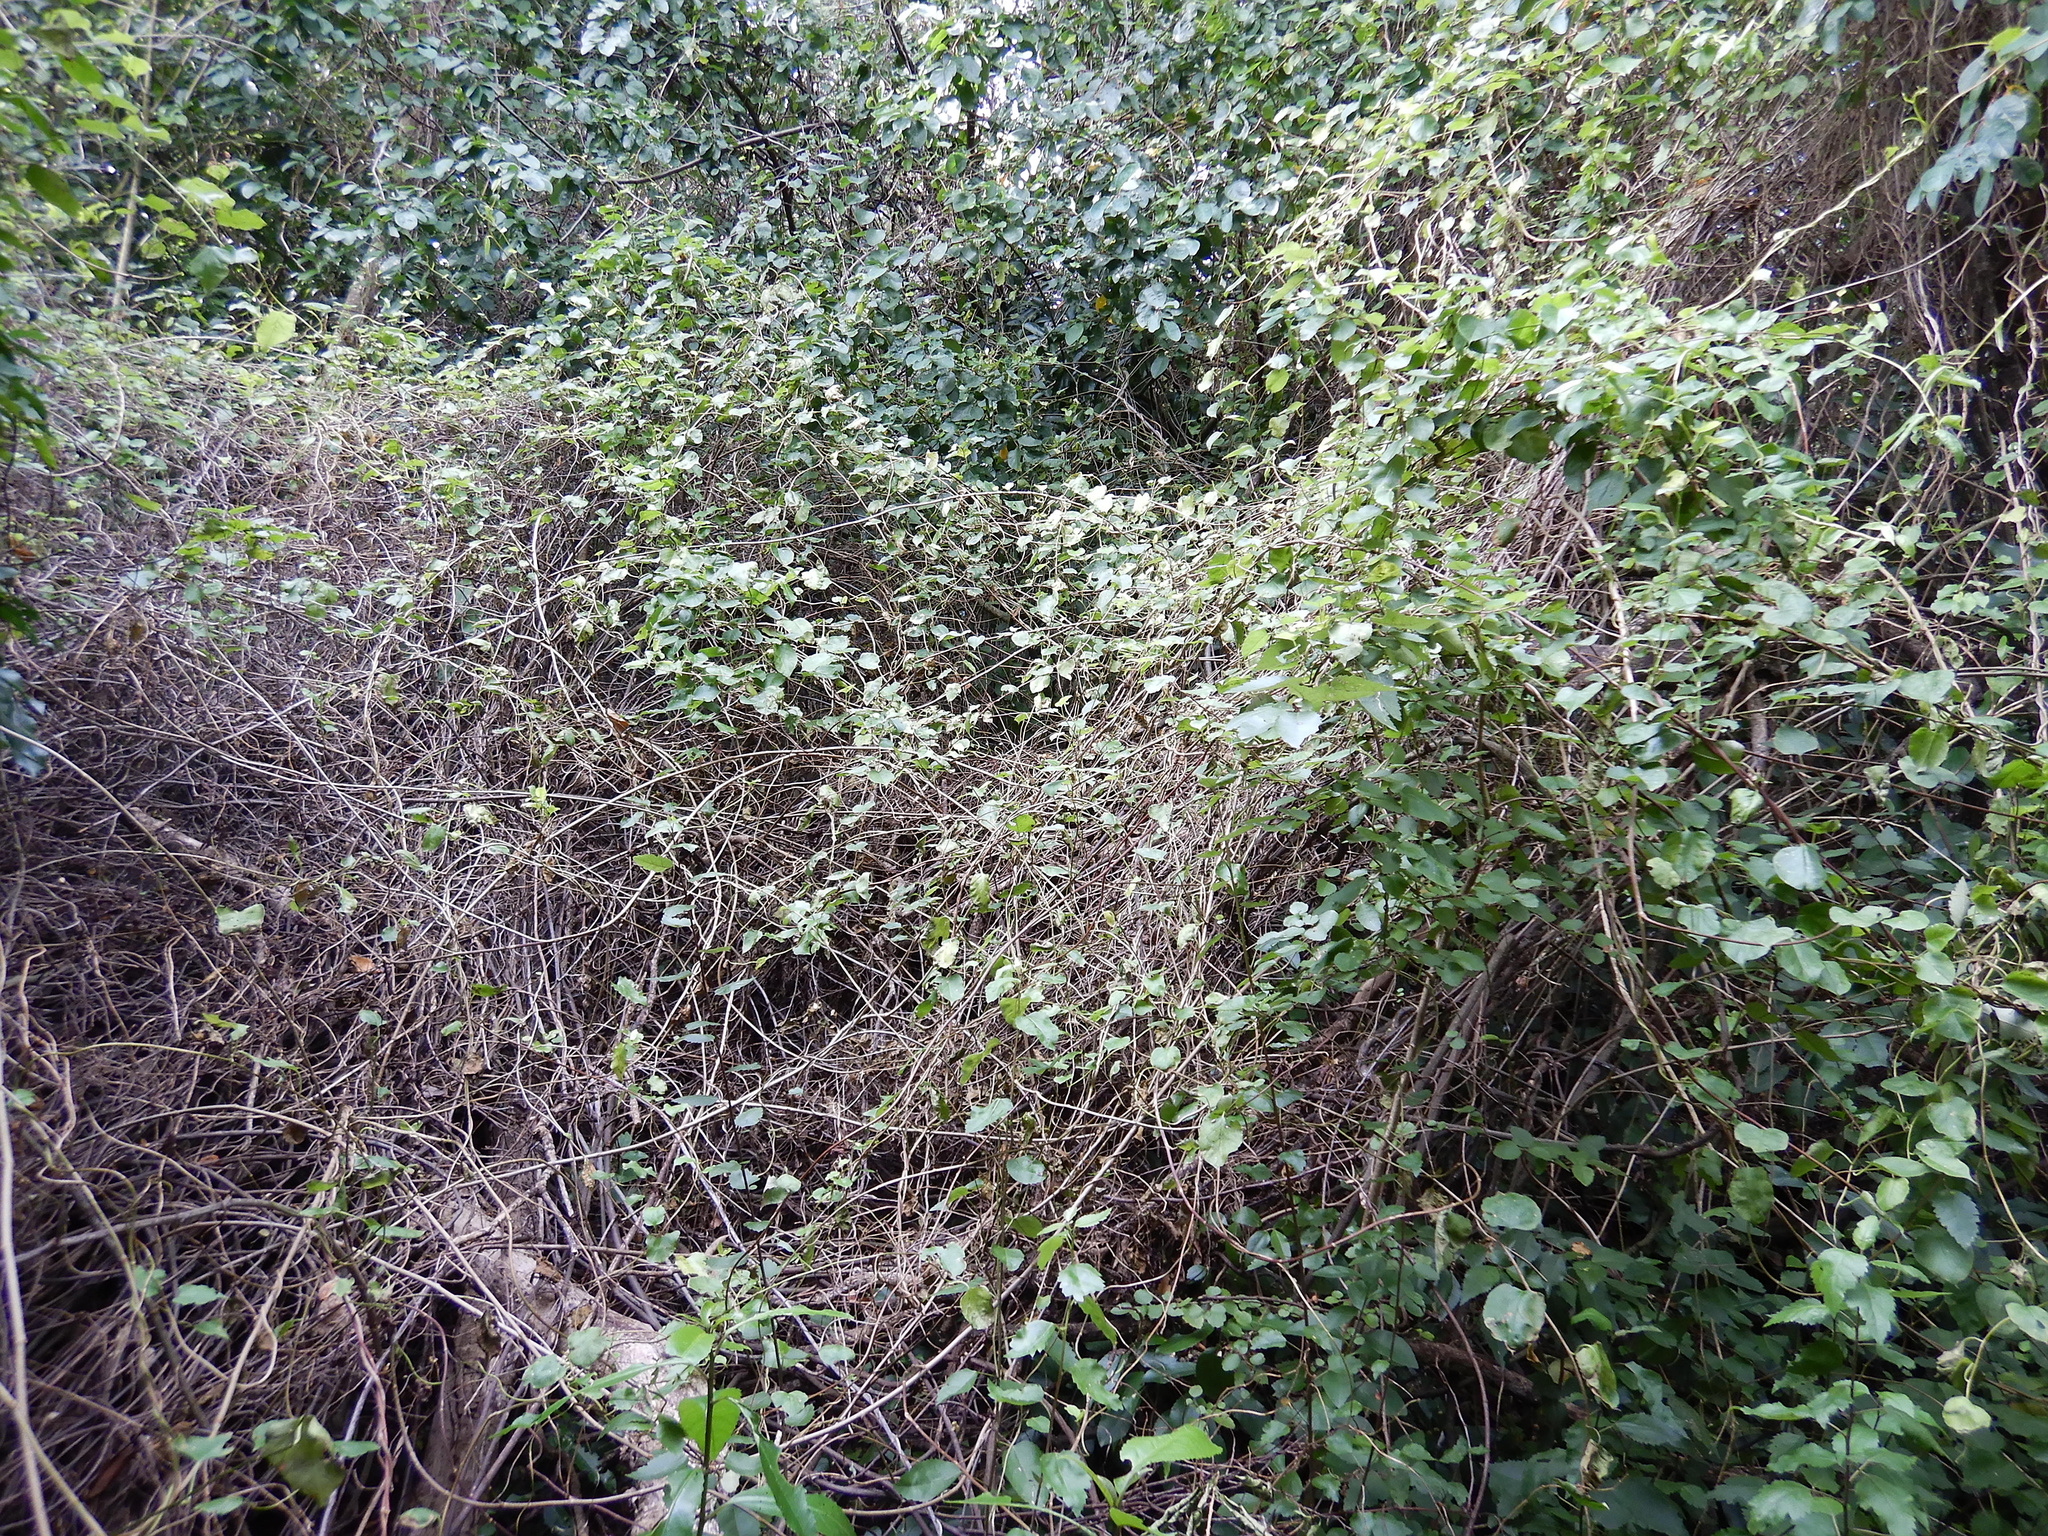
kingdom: Plantae
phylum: Tracheophyta
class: Magnoliopsida
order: Caryophyllales
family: Polygonaceae
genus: Muehlenbeckia
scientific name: Muehlenbeckia australis
